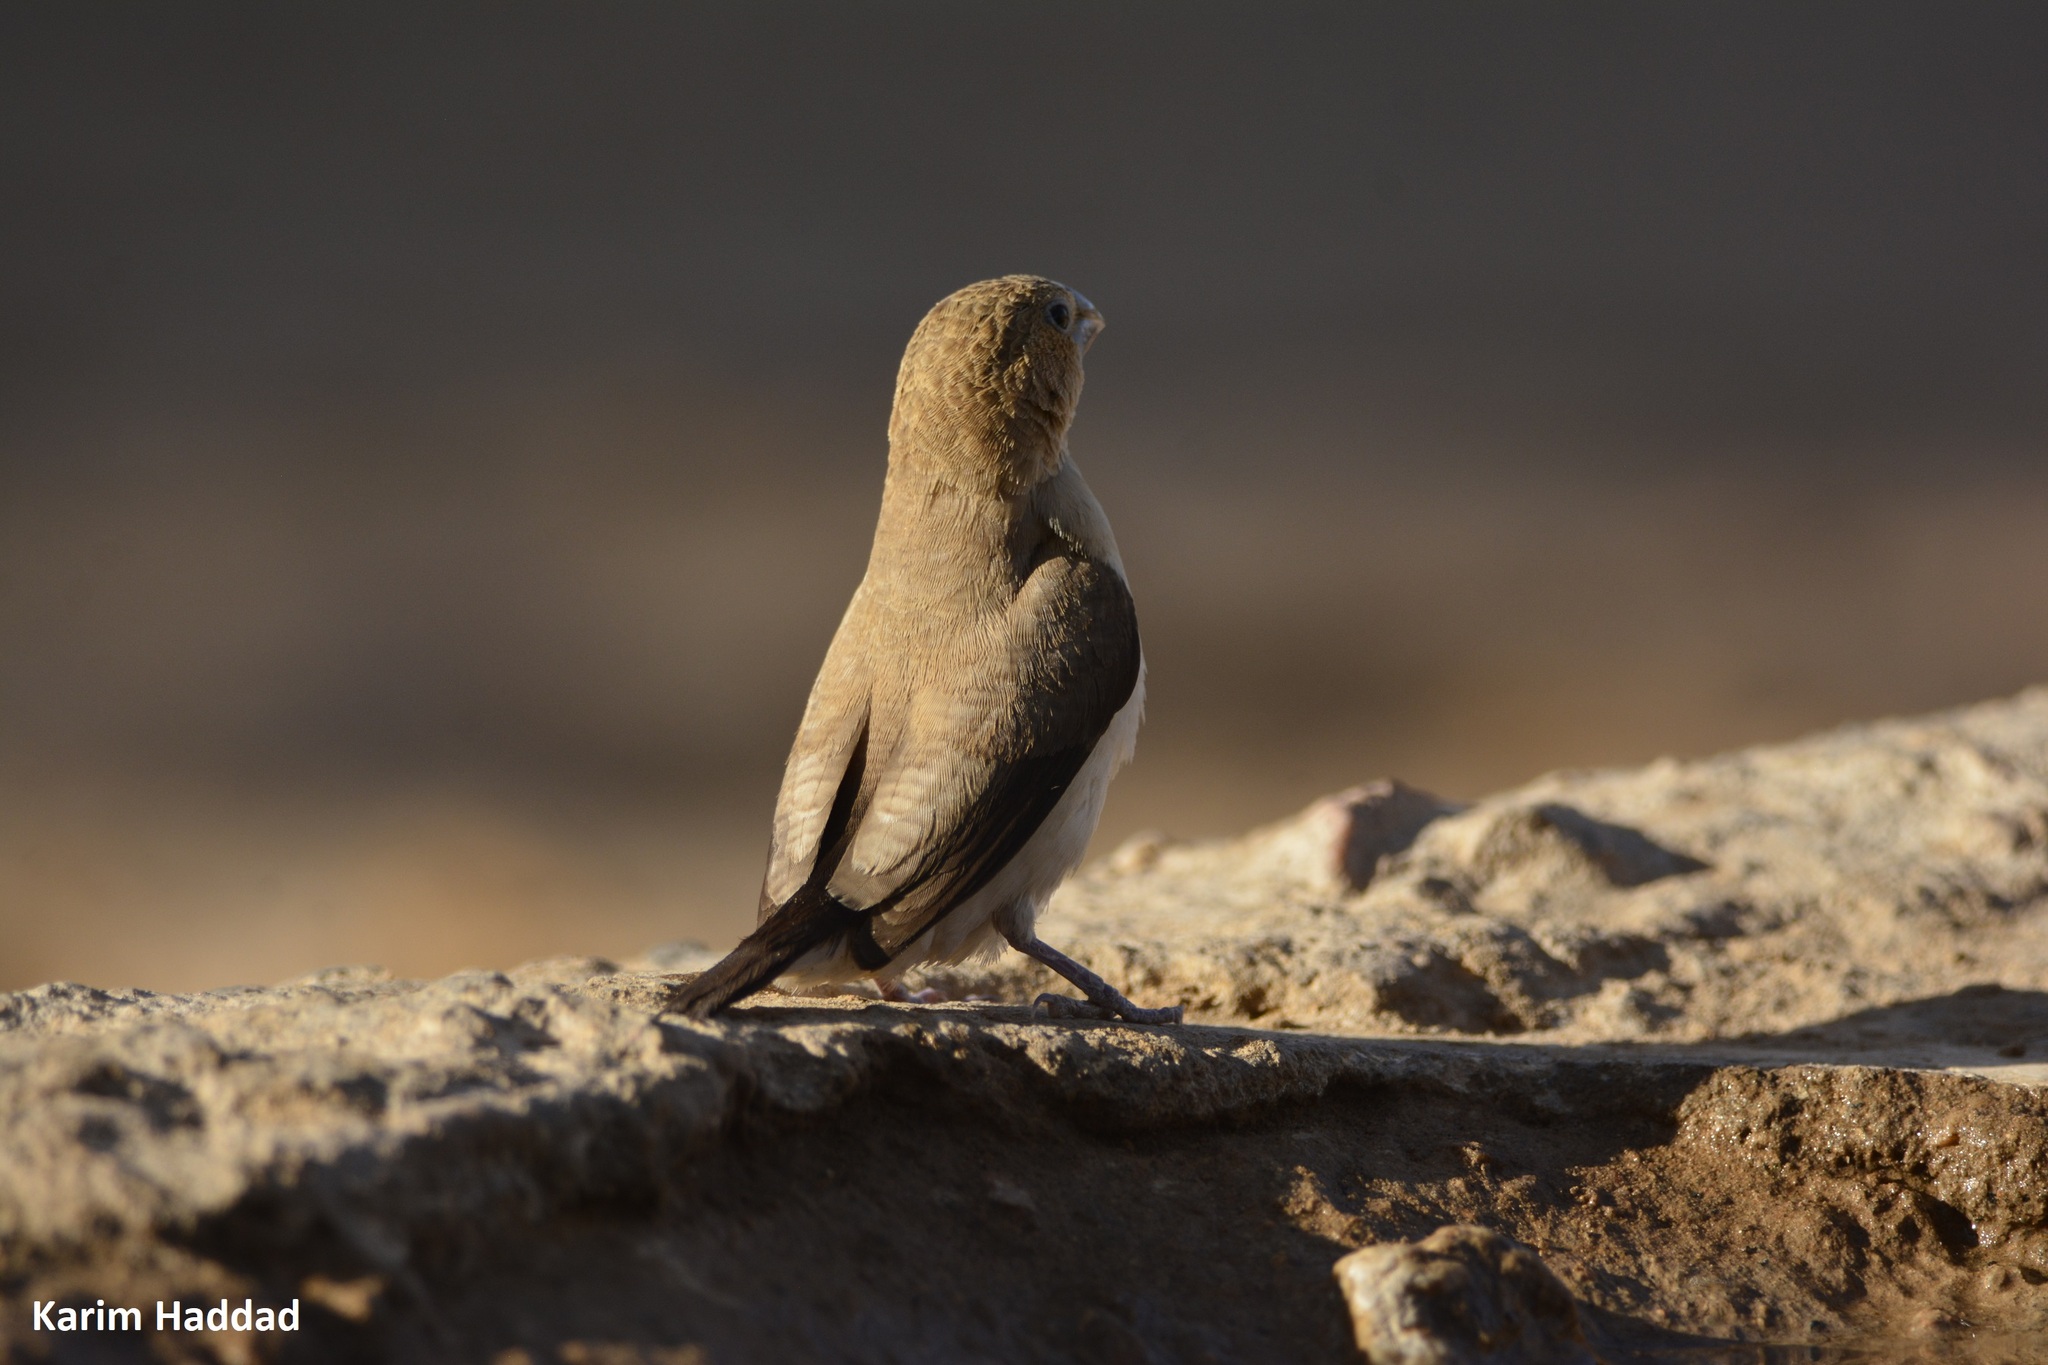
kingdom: Animalia
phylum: Chordata
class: Aves
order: Passeriformes
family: Estrildidae
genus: Euodice
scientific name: Euodice cantans
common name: African silverbill
